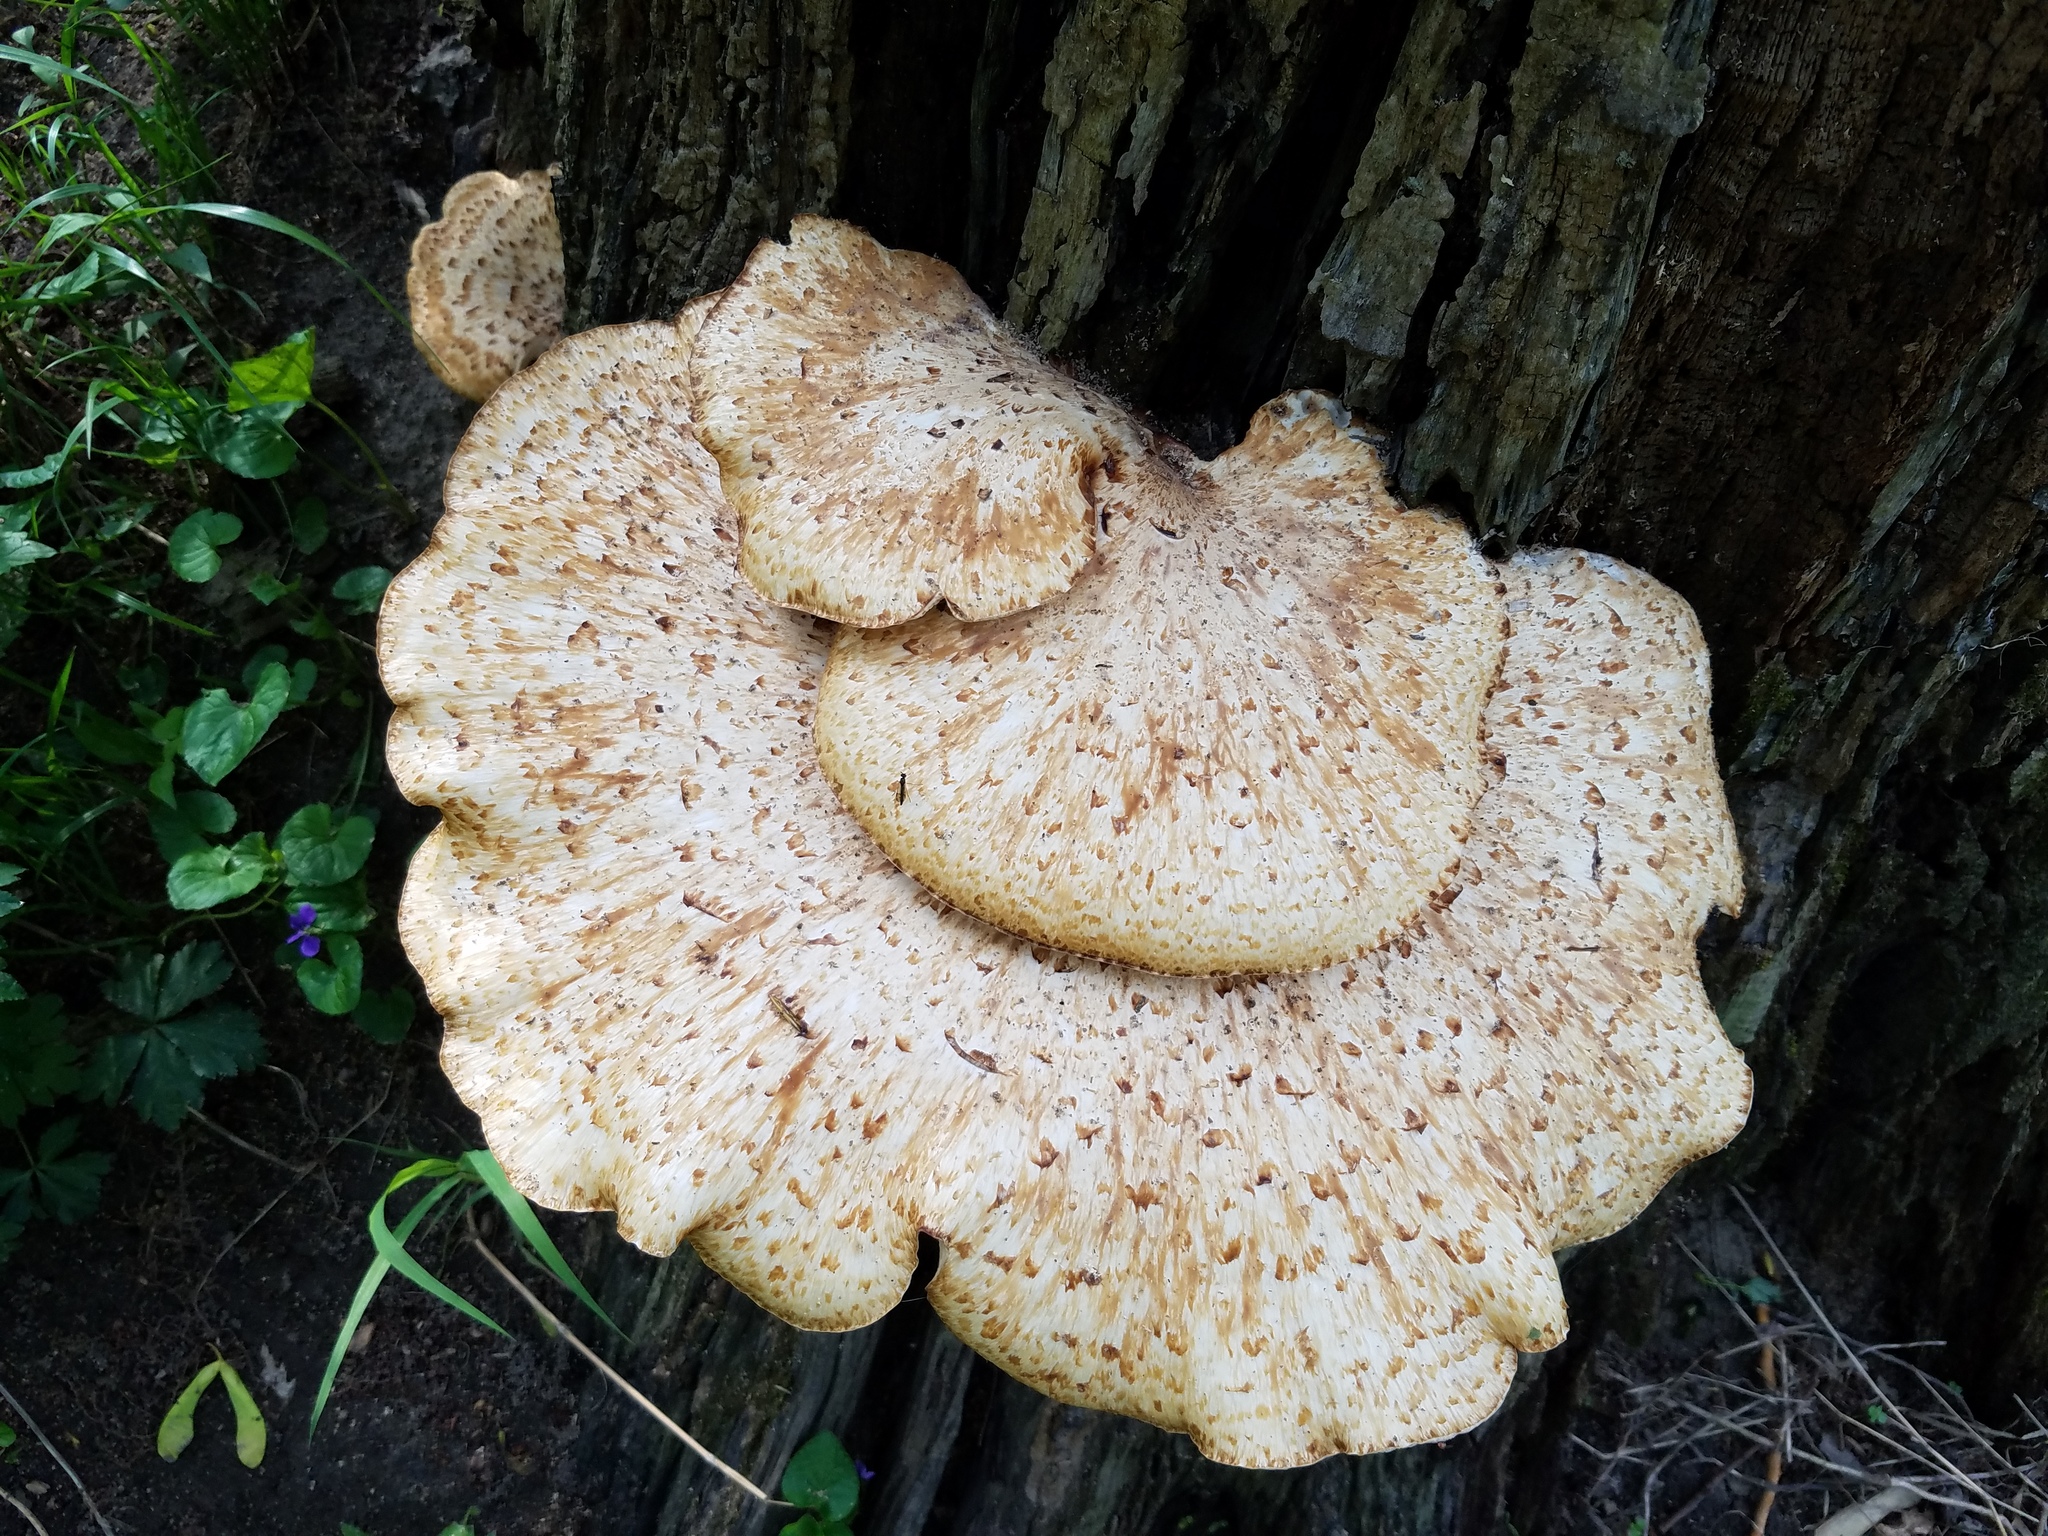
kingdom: Fungi
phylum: Basidiomycota
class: Agaricomycetes
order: Polyporales
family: Polyporaceae
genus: Cerioporus
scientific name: Cerioporus squamosus
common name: Dryad's saddle
